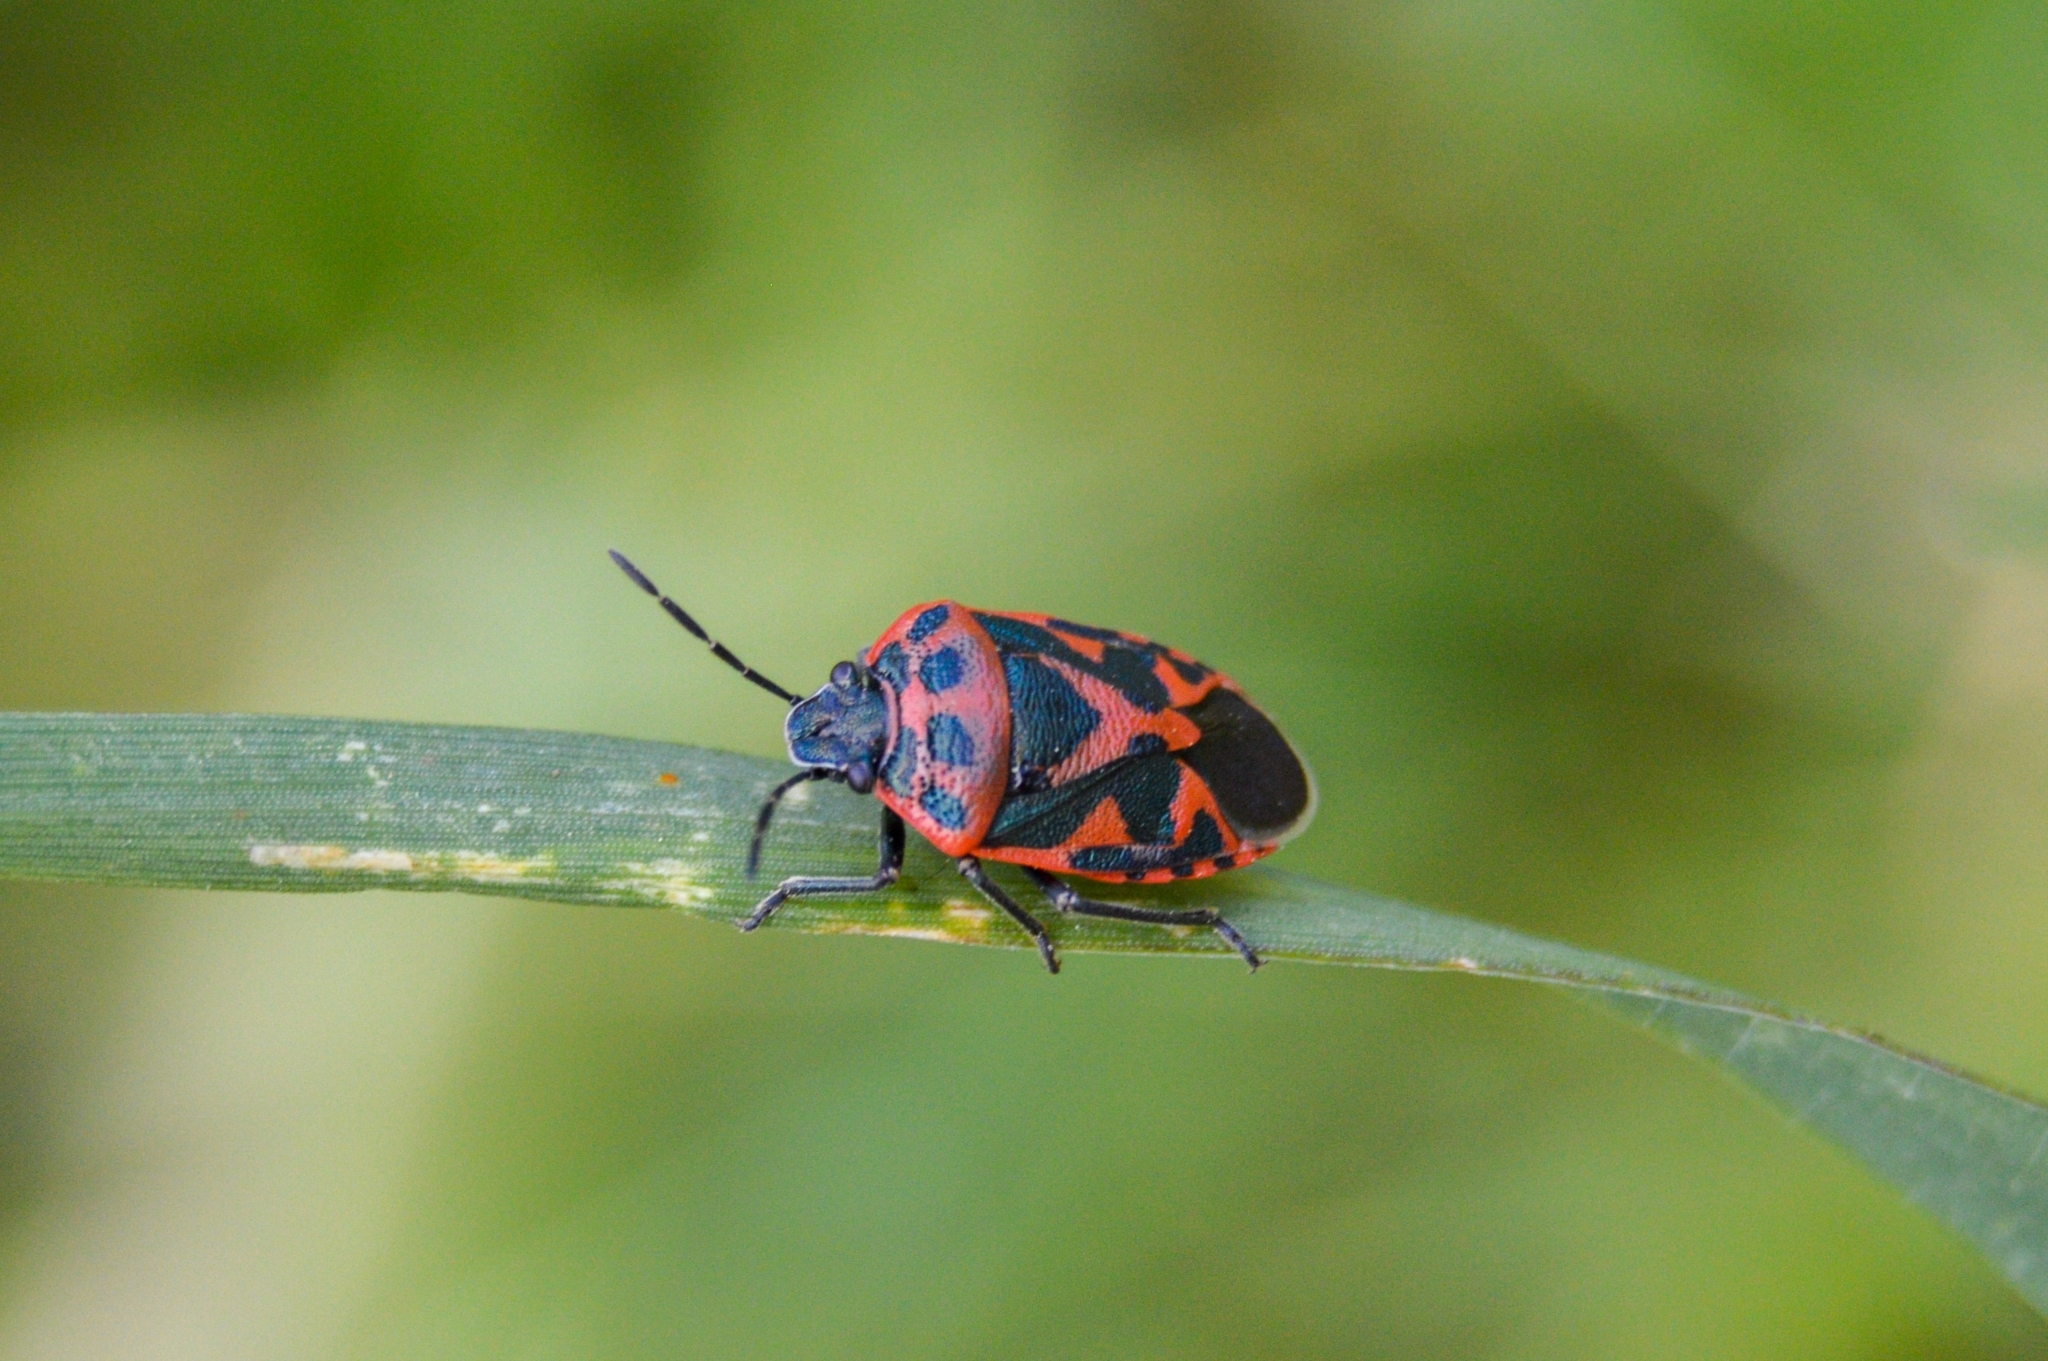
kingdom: Animalia
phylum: Arthropoda
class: Insecta
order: Hemiptera
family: Pentatomidae
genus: Eurydema
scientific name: Eurydema ornata
